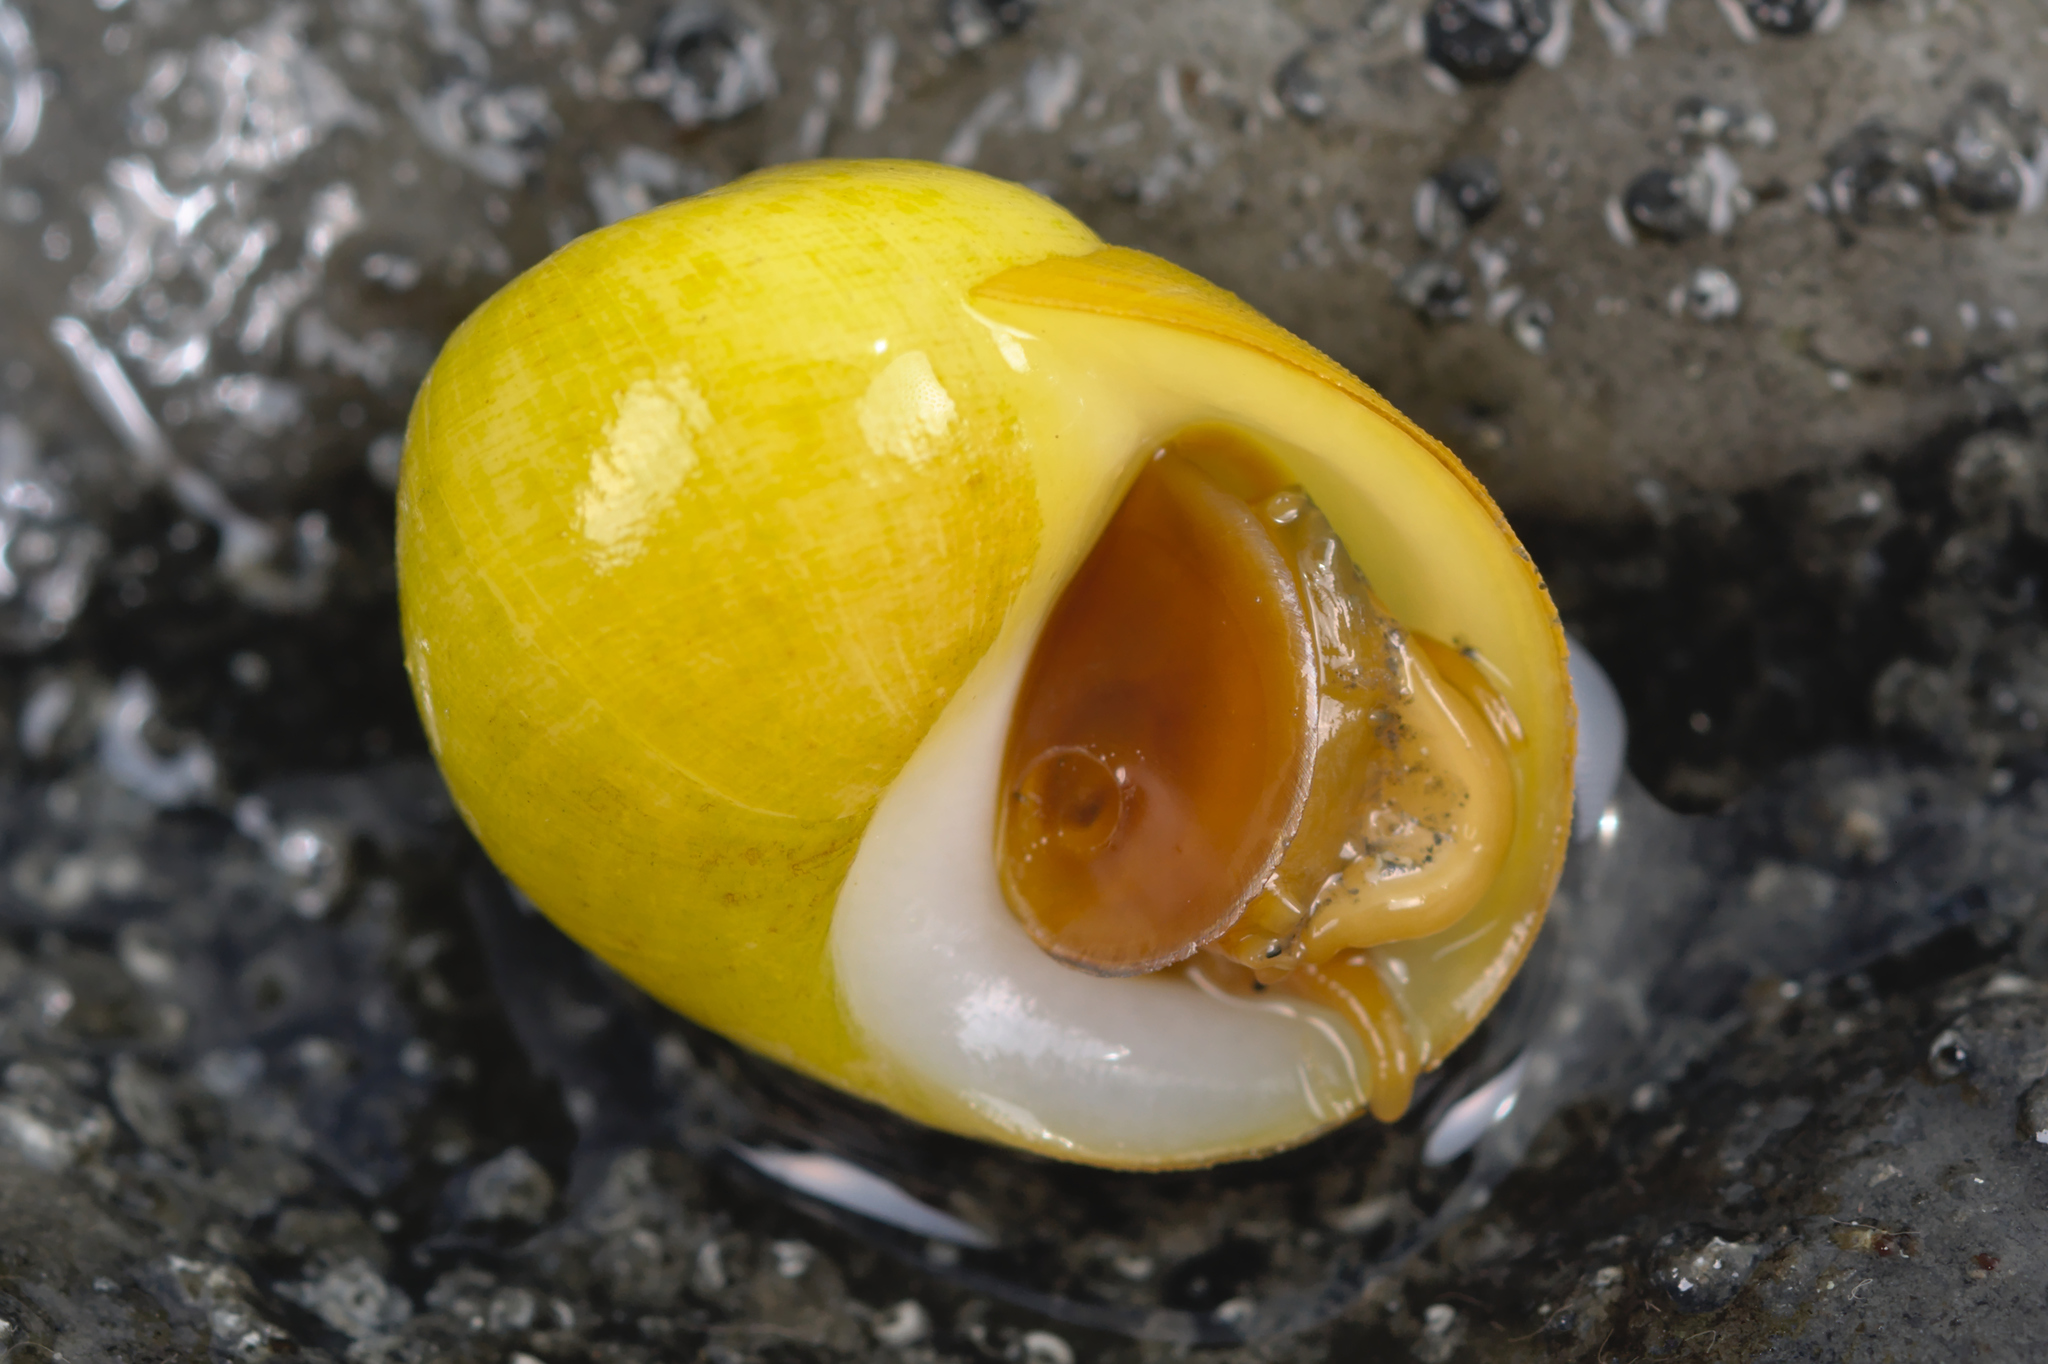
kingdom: Animalia
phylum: Mollusca
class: Gastropoda
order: Littorinimorpha
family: Littorinidae
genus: Littorina
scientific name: Littorina obtusata
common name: Flat periwinkle
